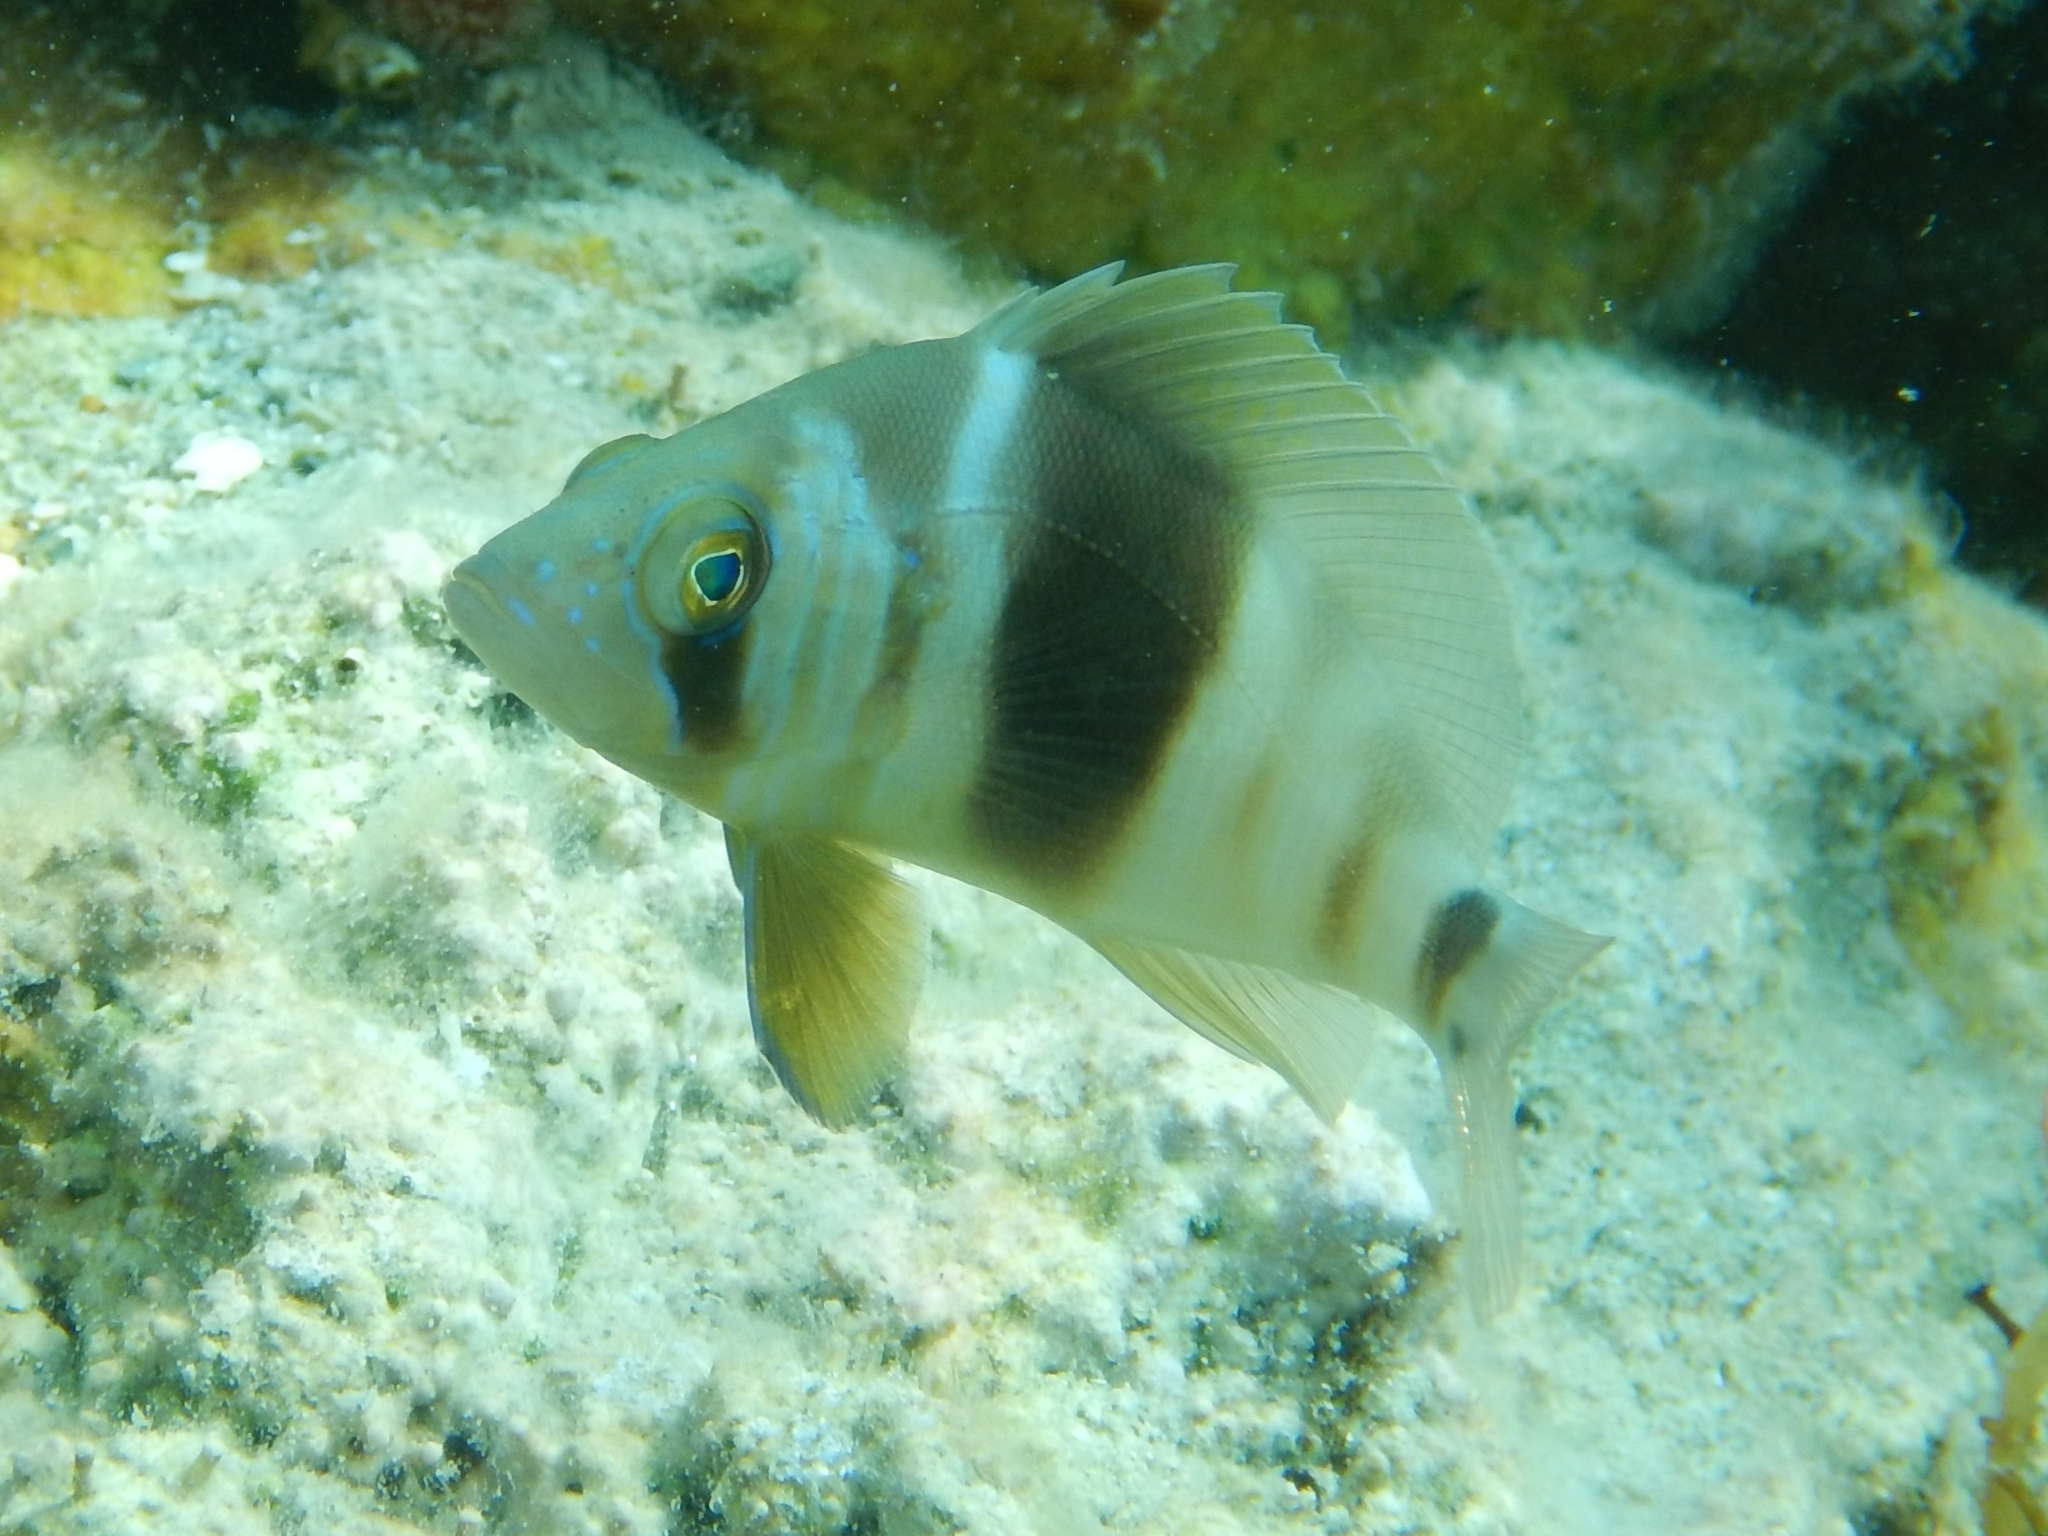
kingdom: Animalia
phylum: Chordata
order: Perciformes
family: Serranidae
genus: Hypoplectrus
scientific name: Hypoplectrus puella
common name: Barred hamlet
